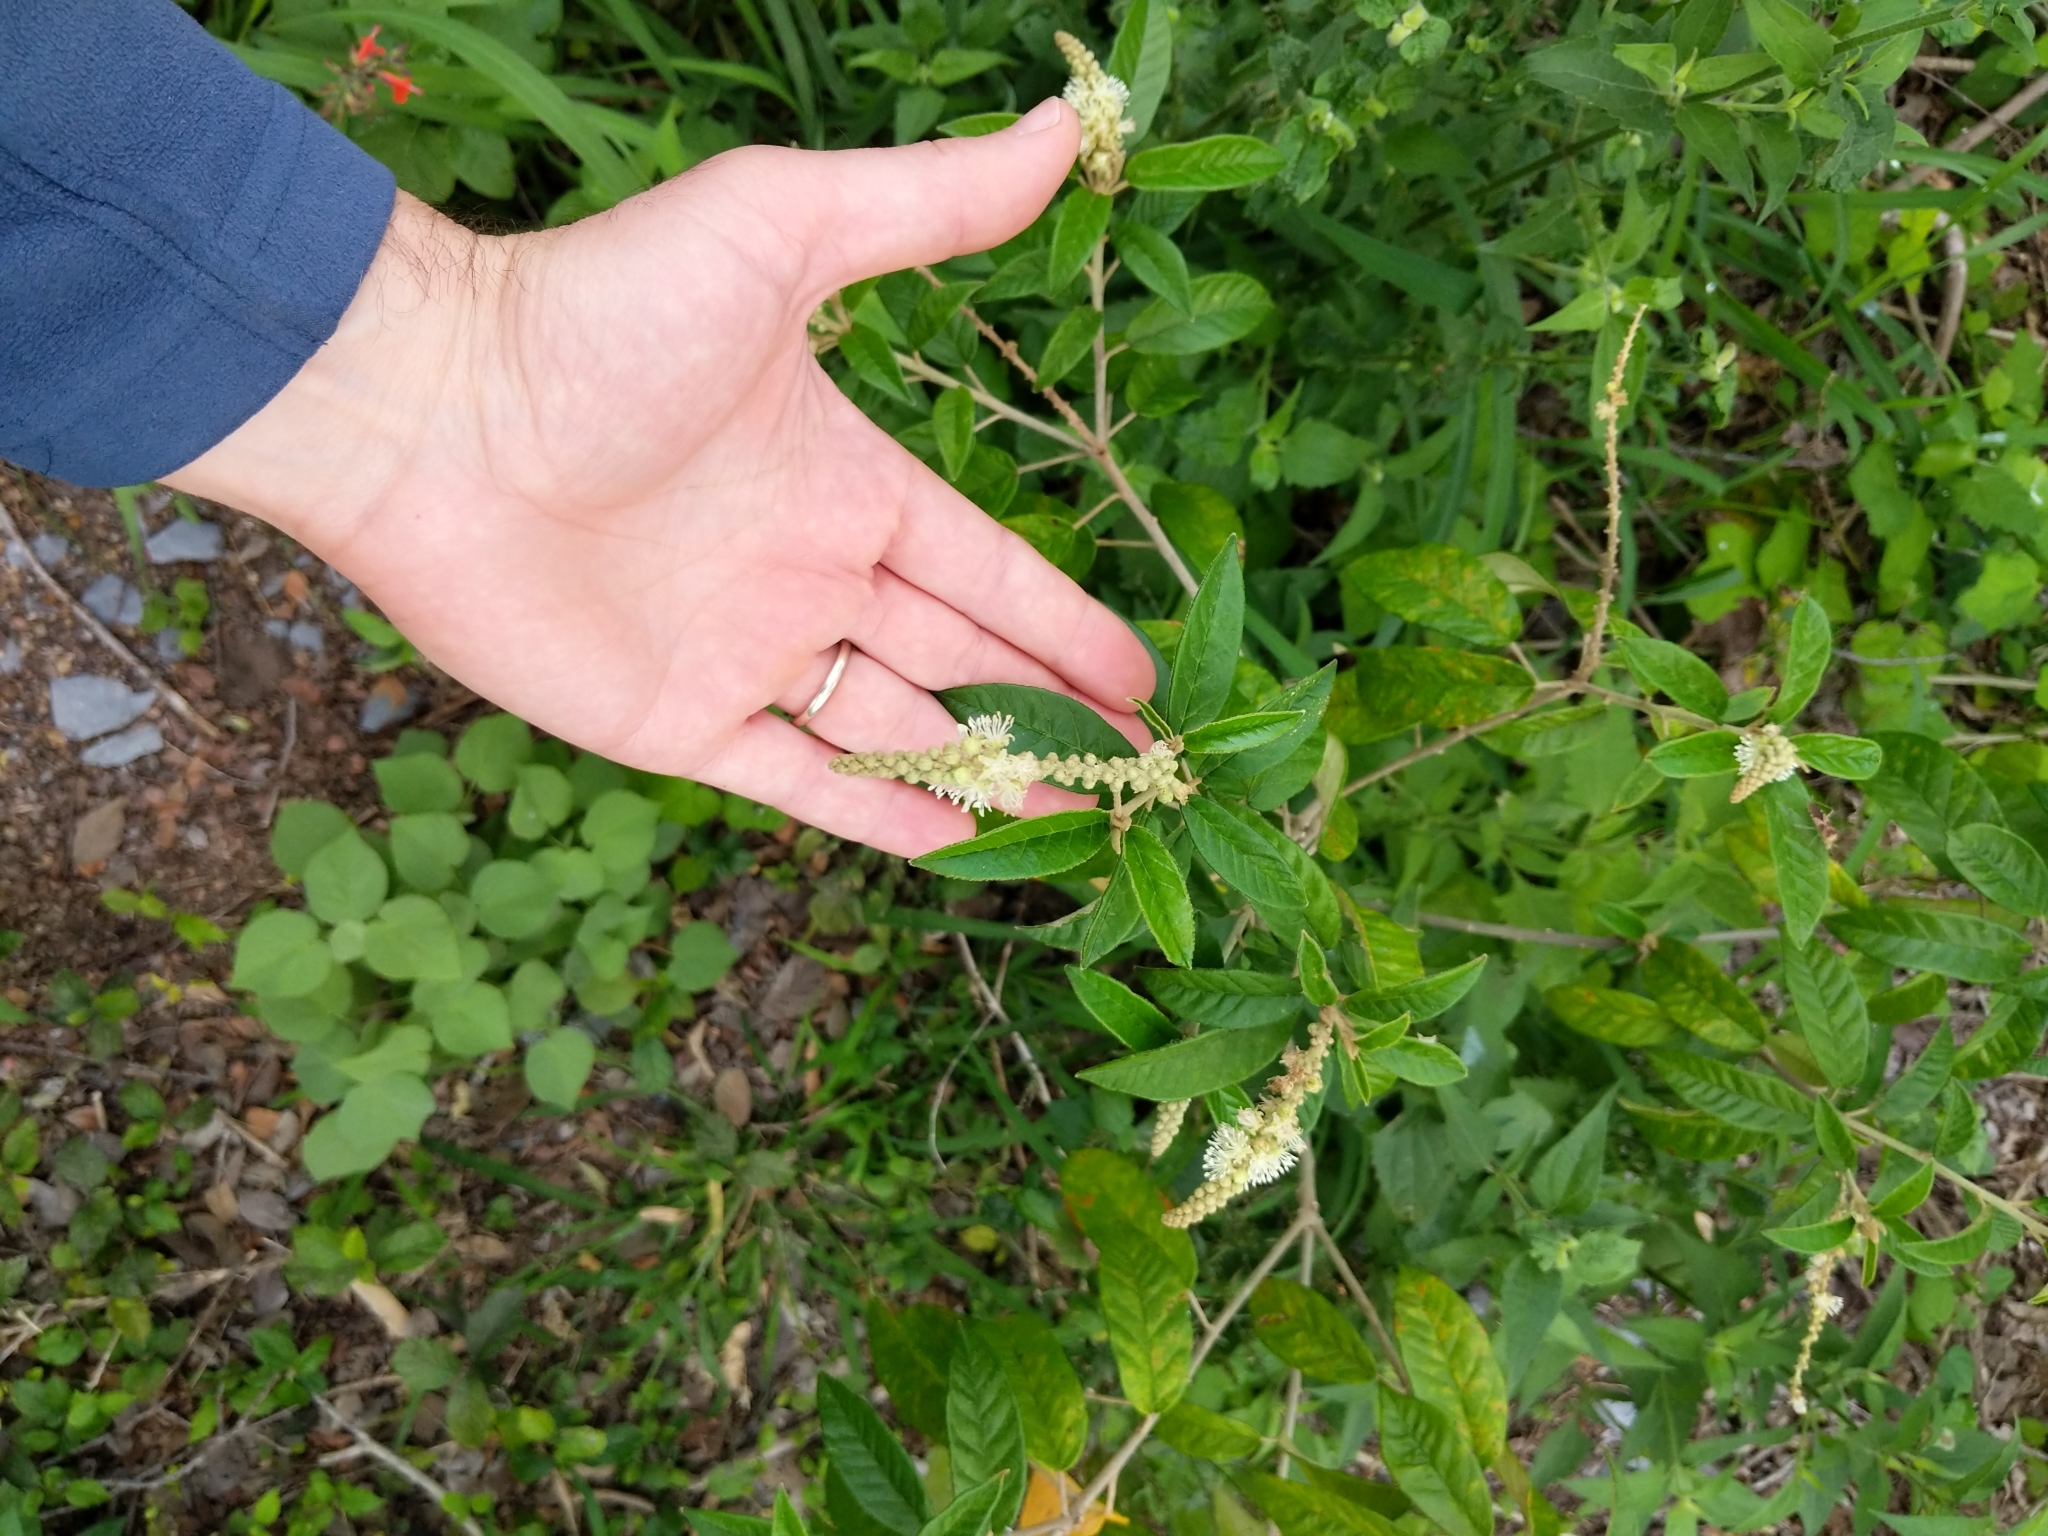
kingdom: Plantae
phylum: Tracheophyta
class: Magnoliopsida
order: Malpighiales
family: Euphorbiaceae
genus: Croton
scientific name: Croton cortesianus
